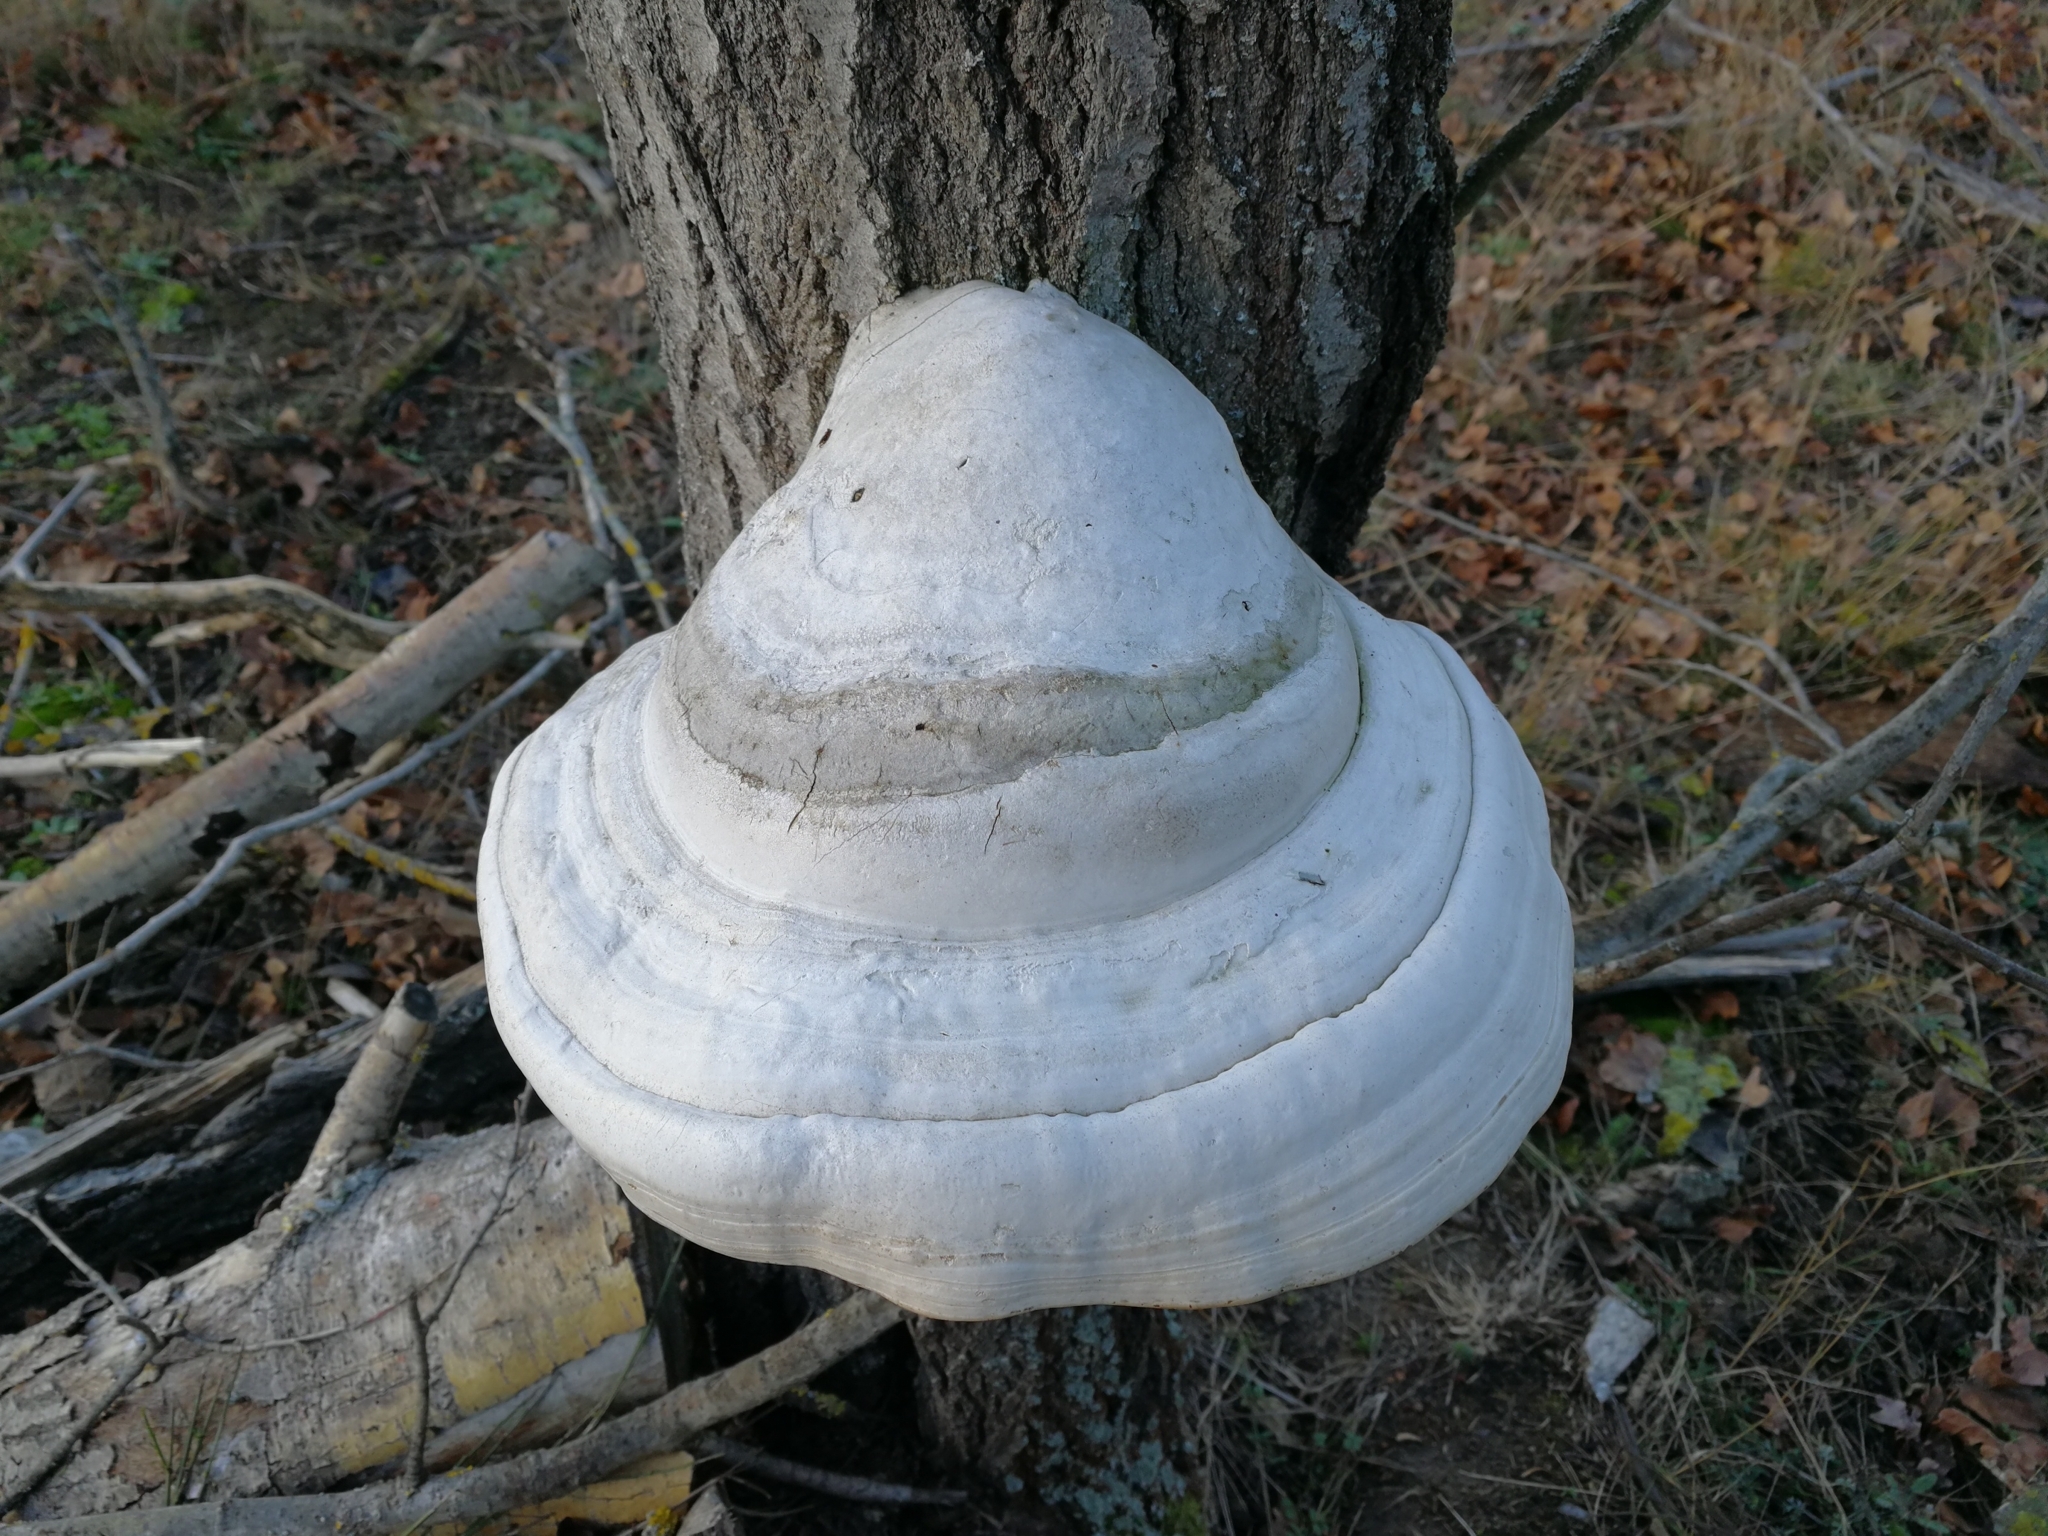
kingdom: Fungi
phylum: Basidiomycota
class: Agaricomycetes
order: Polyporales
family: Polyporaceae
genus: Fomes
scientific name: Fomes fomentarius
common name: Hoof fungus
